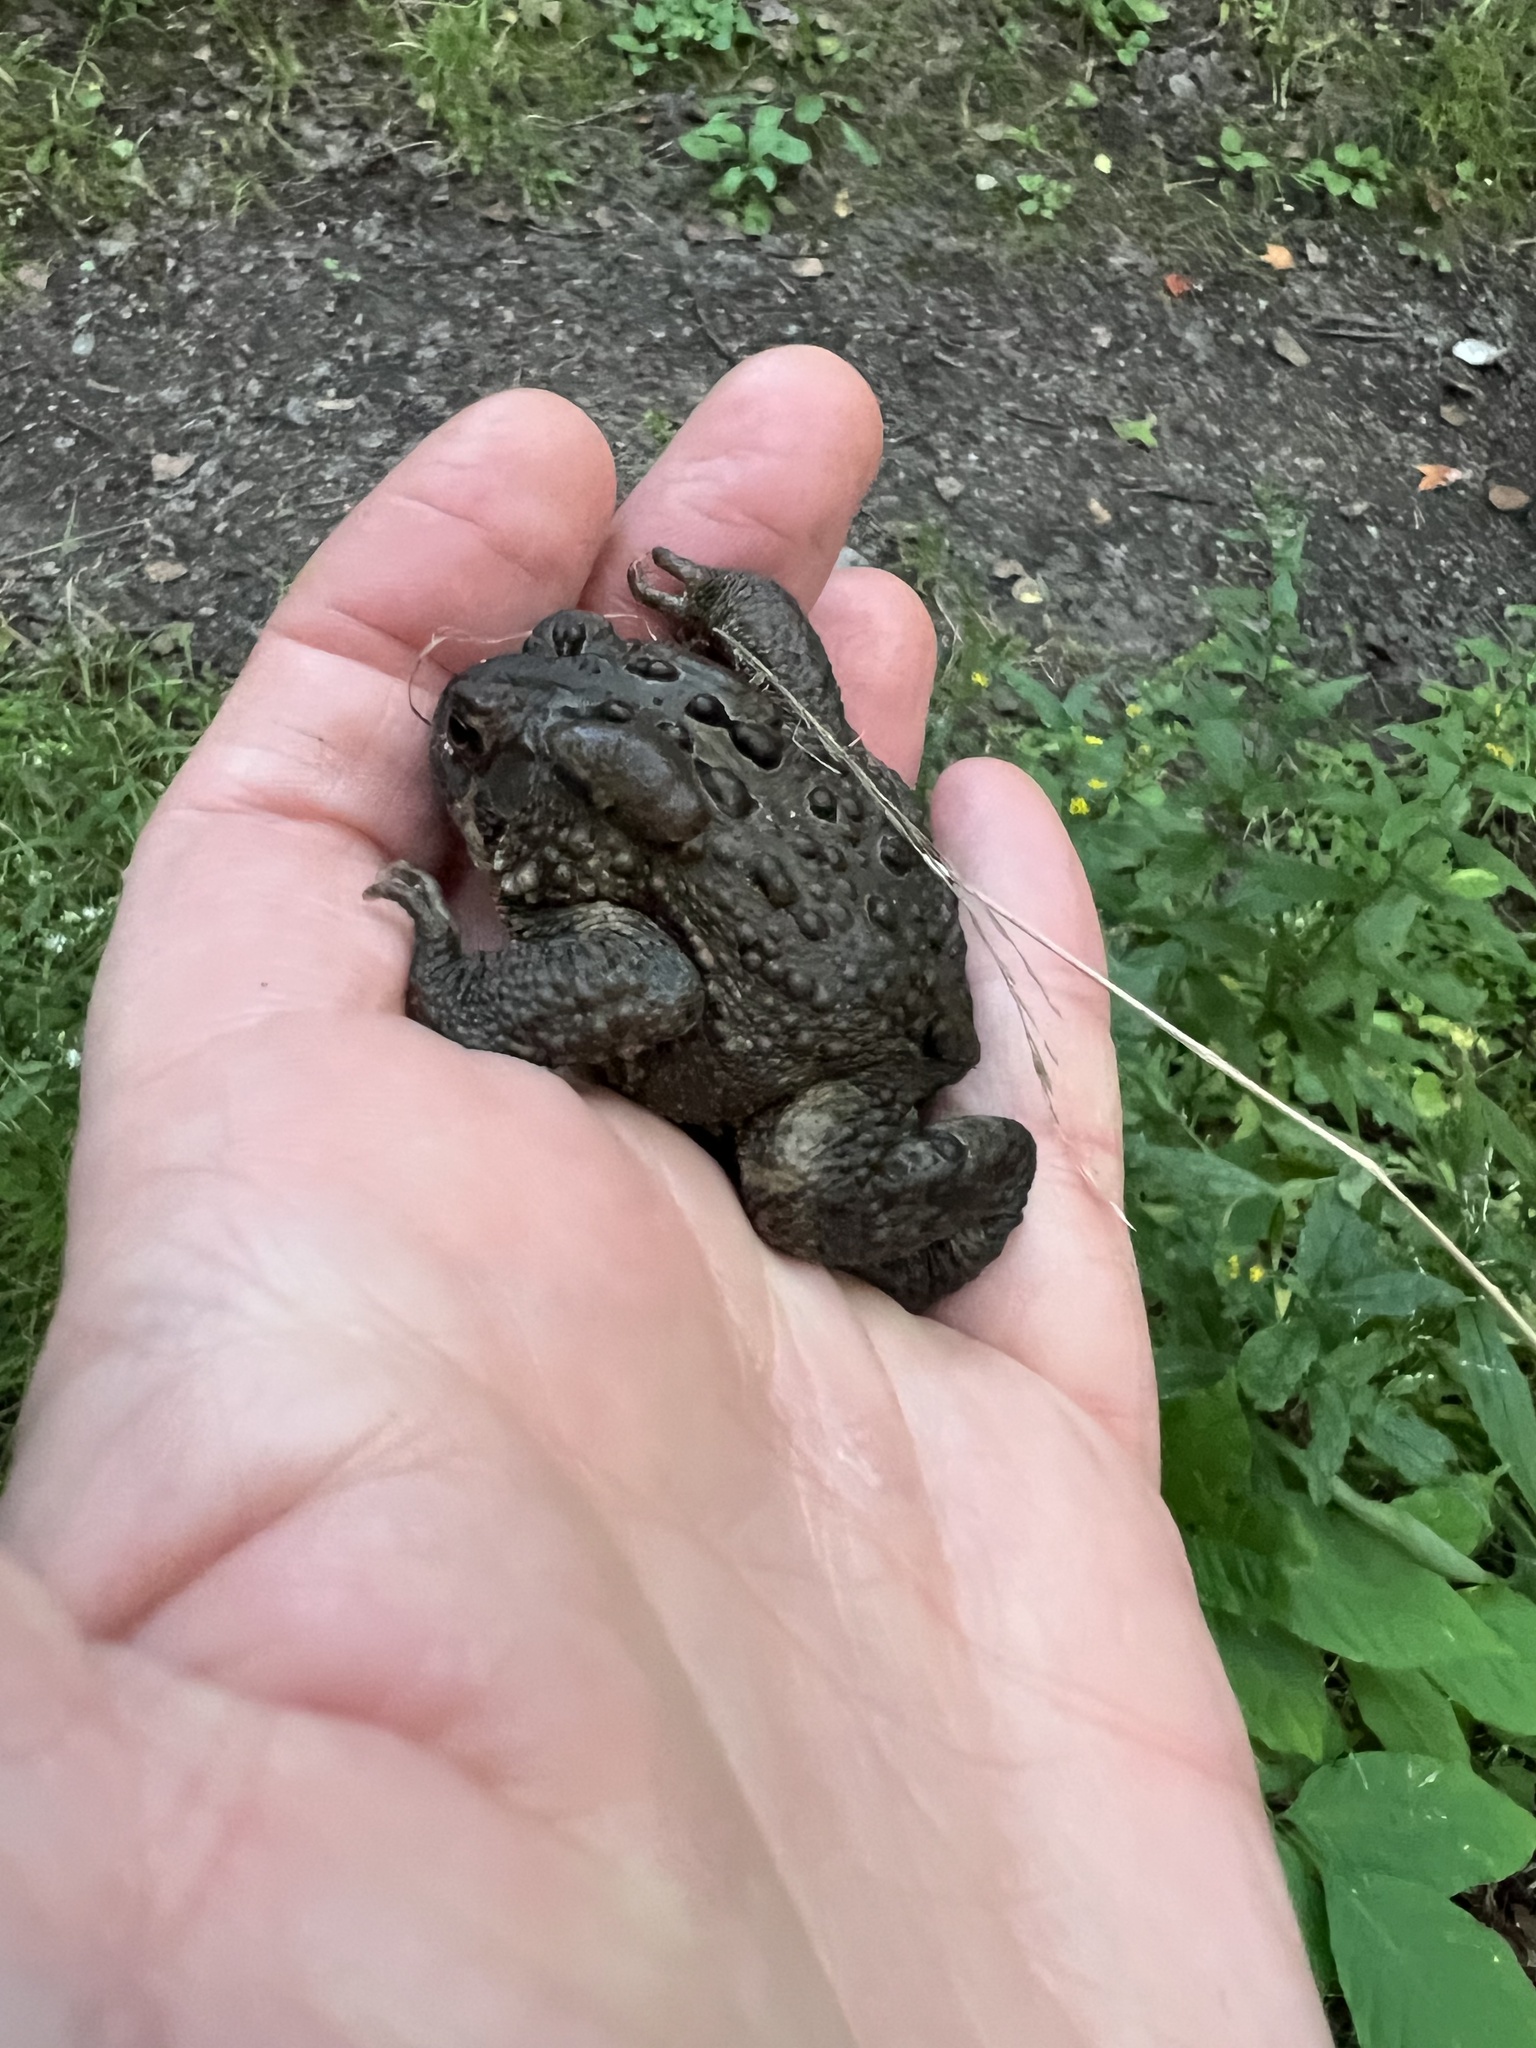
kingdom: Animalia
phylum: Chordata
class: Amphibia
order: Anura
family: Bufonidae
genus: Anaxyrus
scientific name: Anaxyrus americanus
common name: American toad
